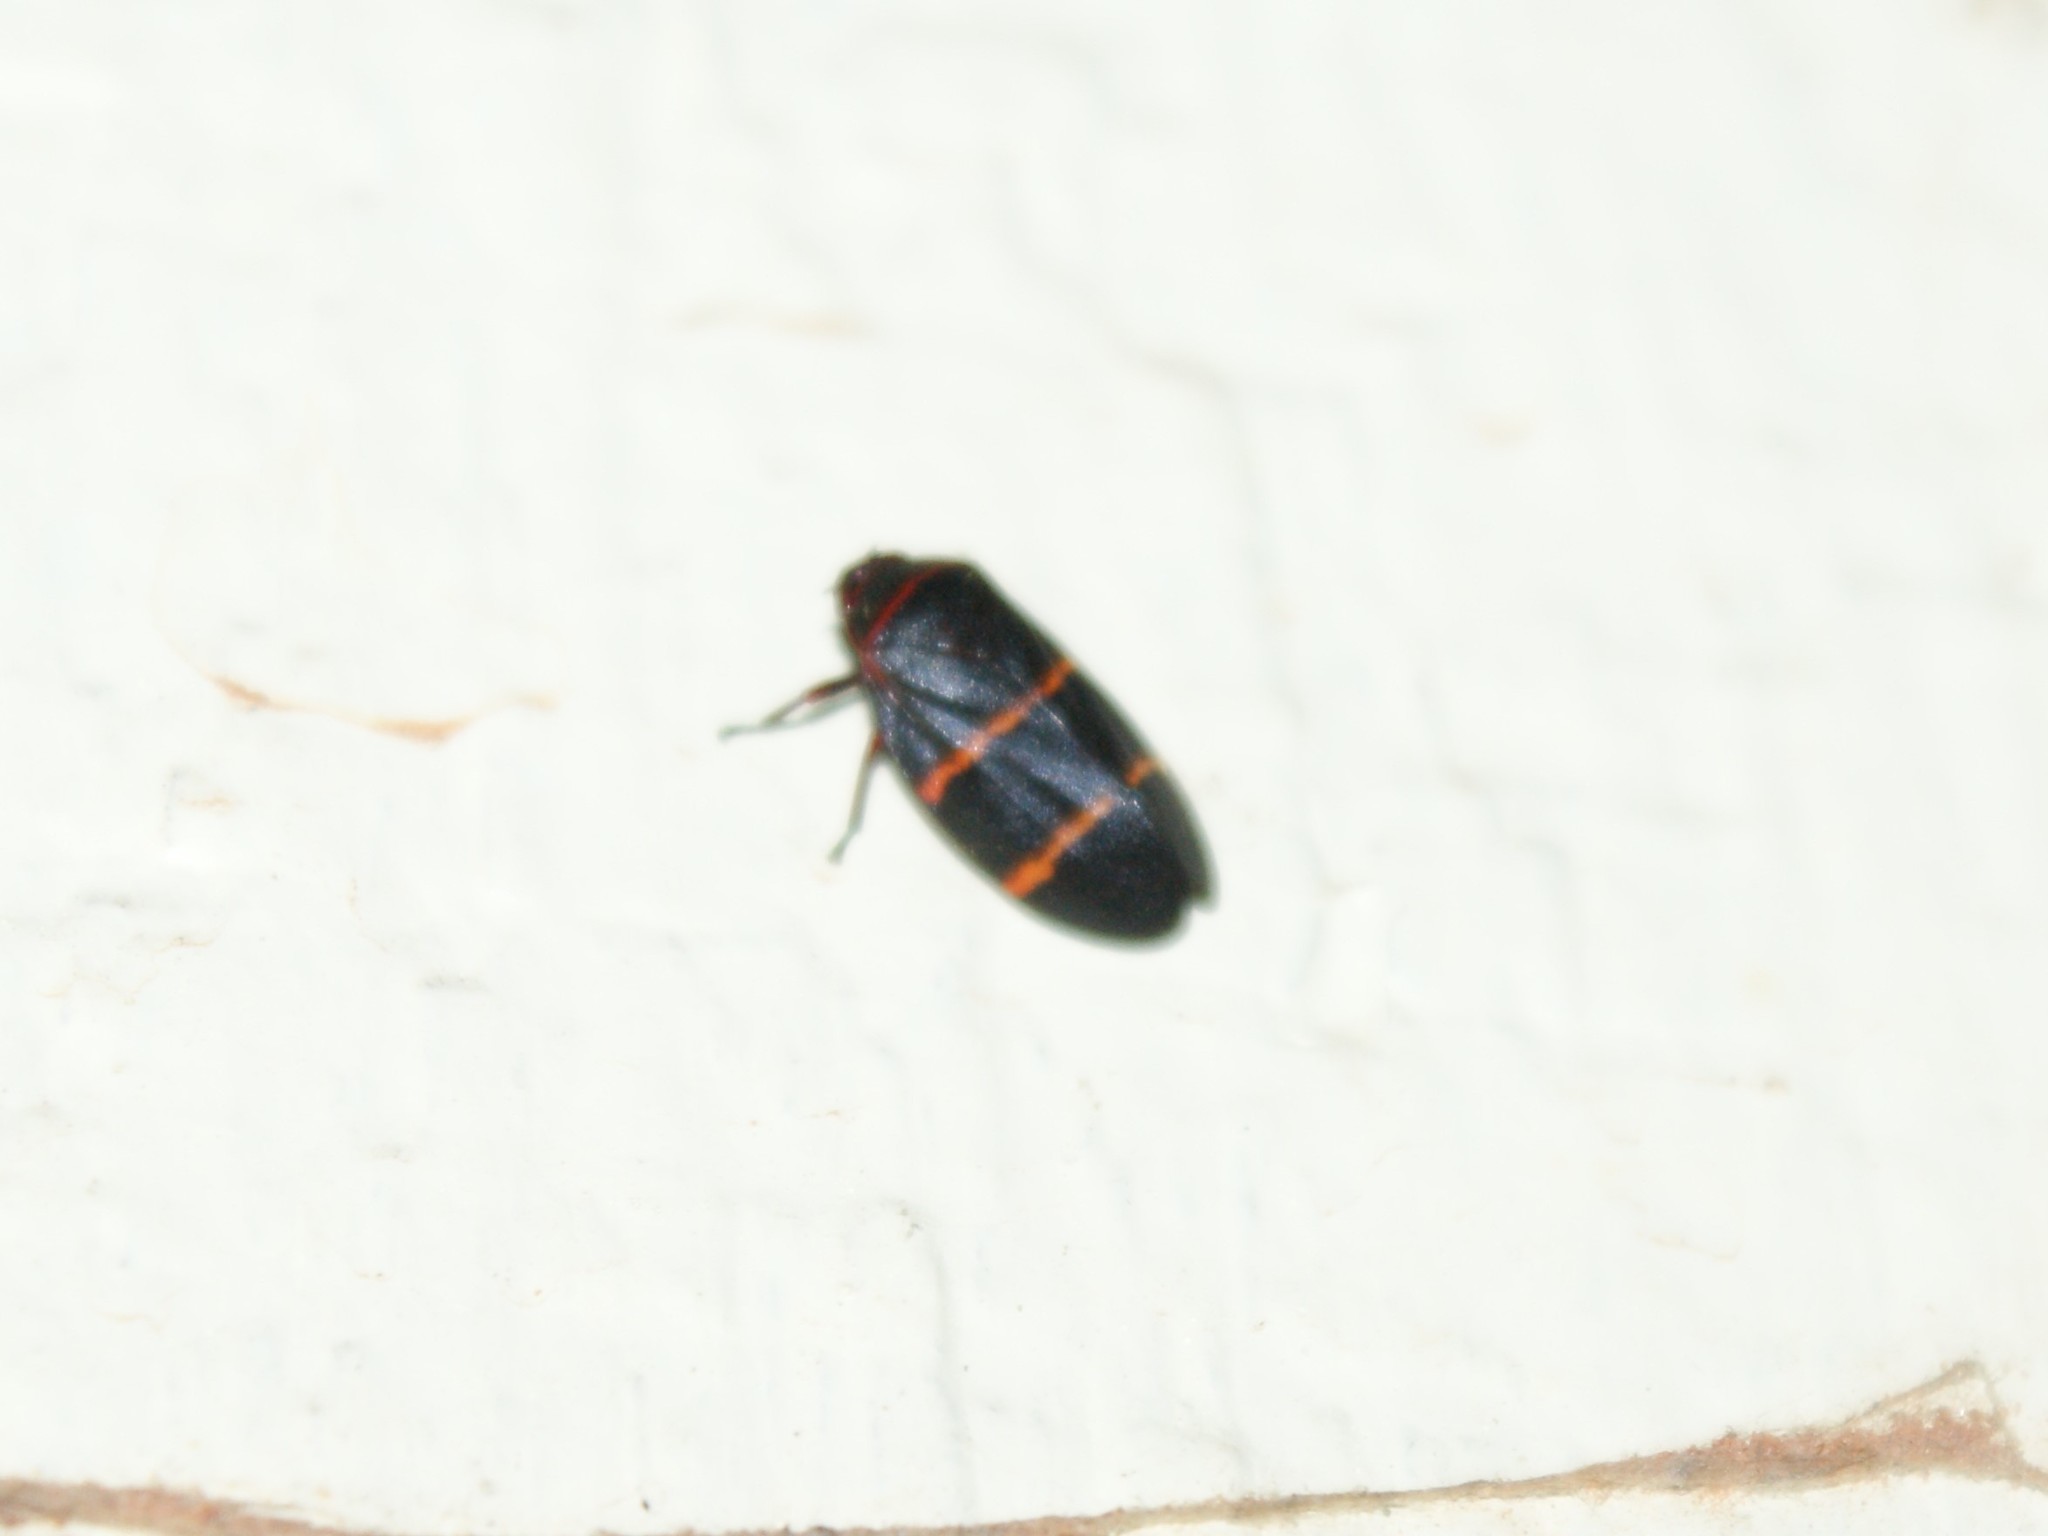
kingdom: Animalia
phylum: Arthropoda
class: Insecta
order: Hemiptera
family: Cercopidae
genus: Prosapia
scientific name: Prosapia bicincta
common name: Twolined spittlebug
